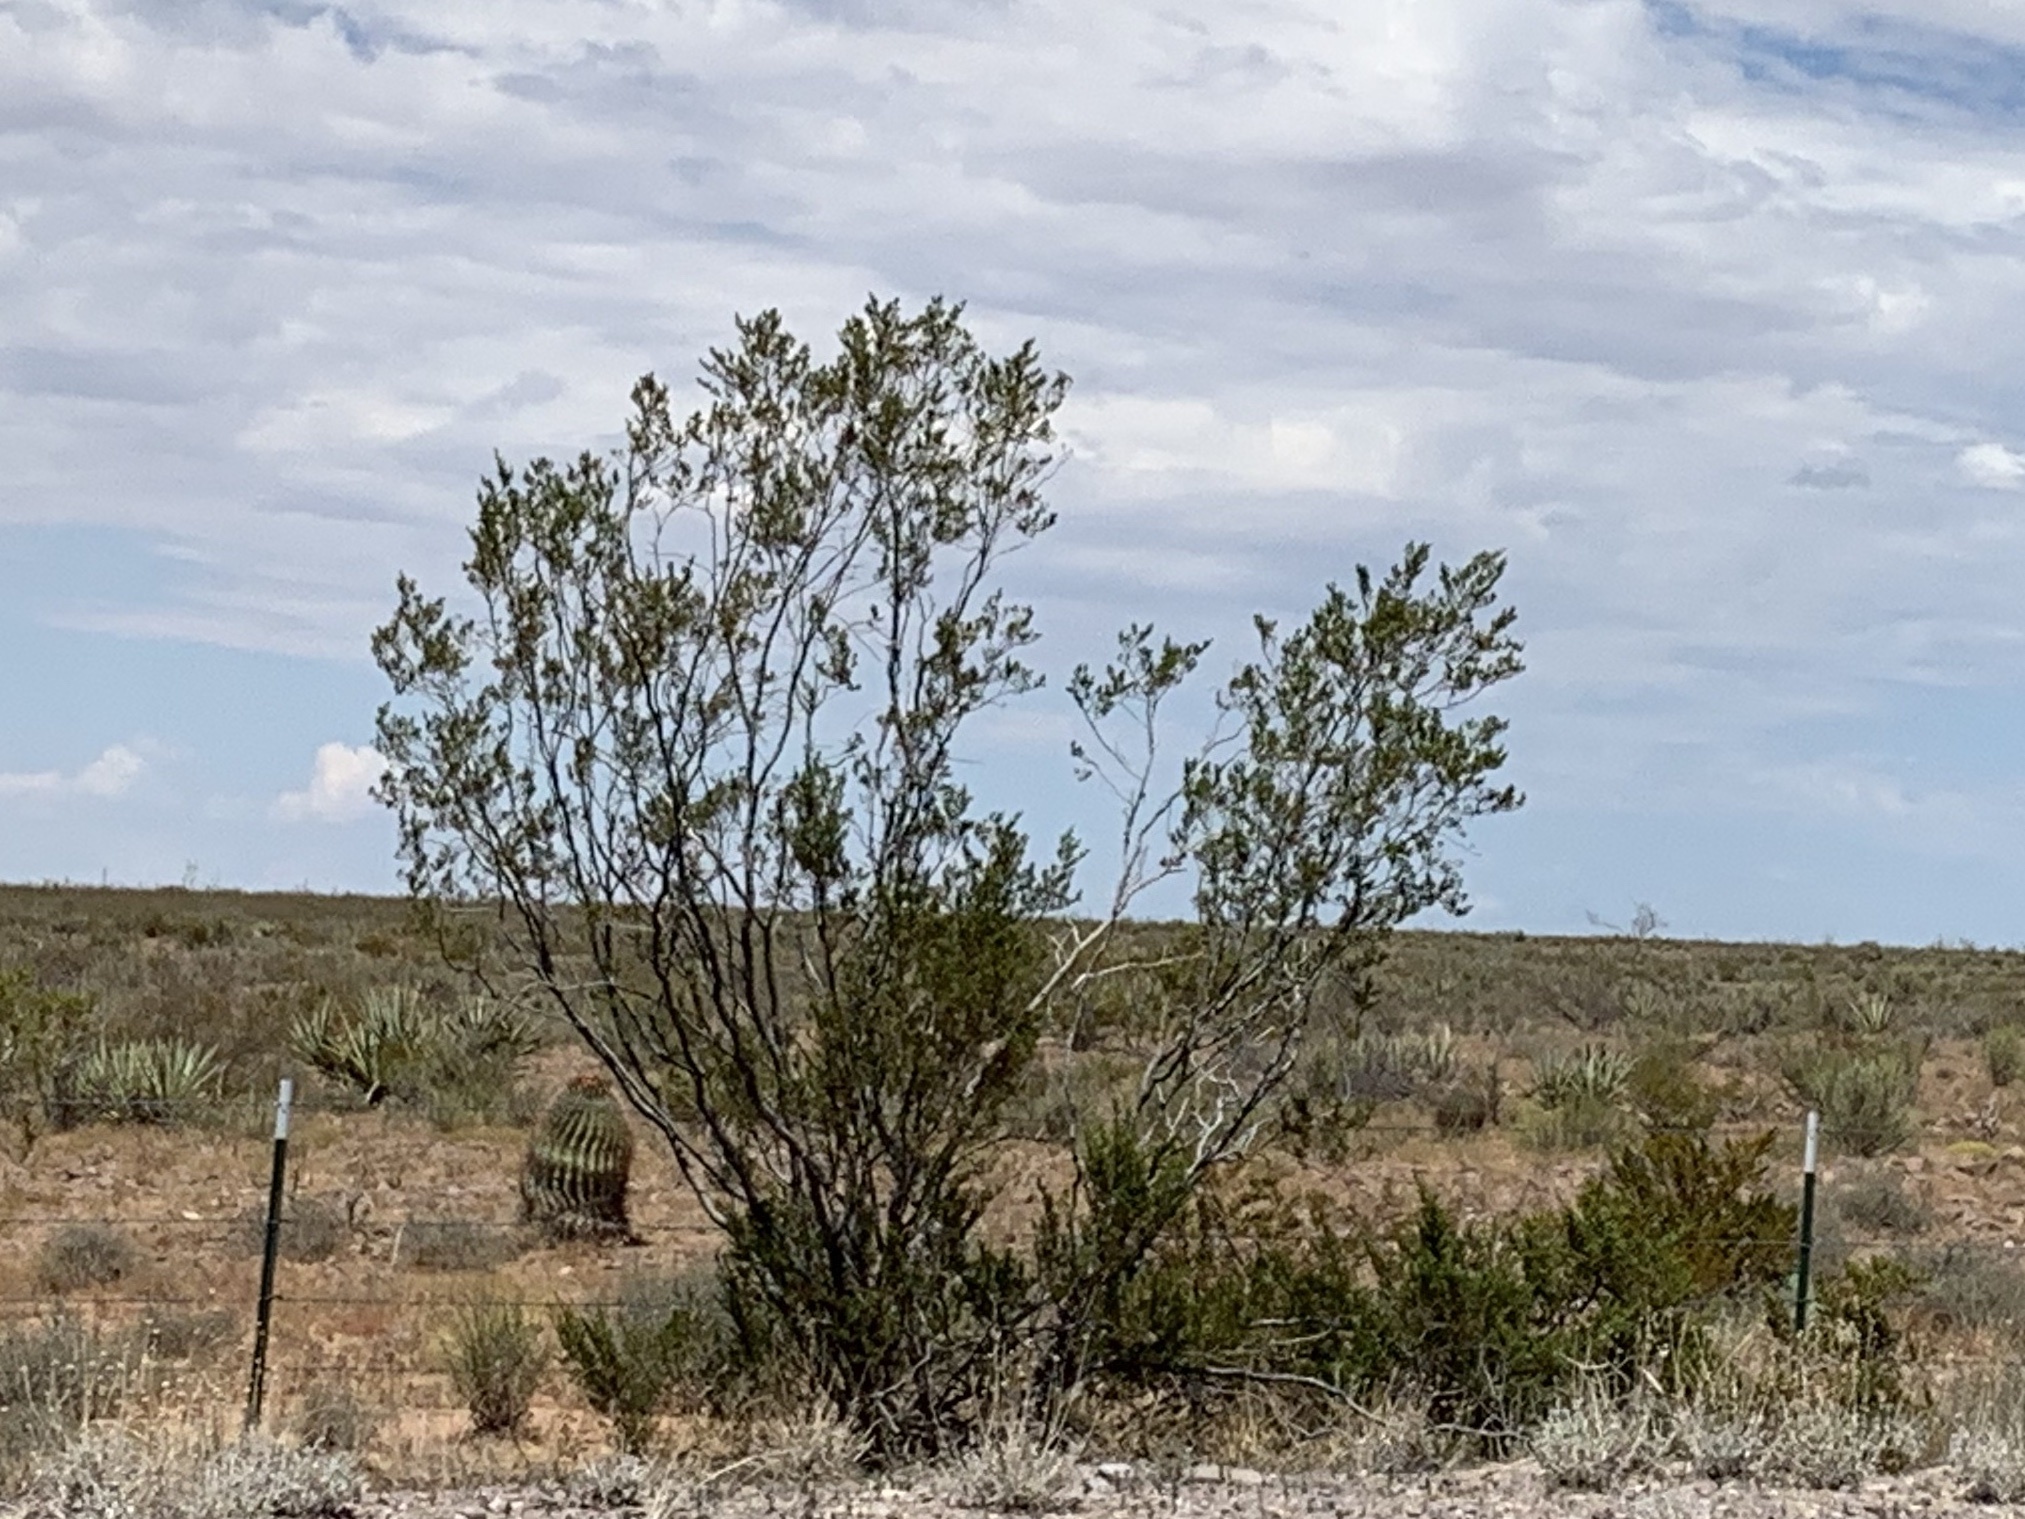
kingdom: Plantae
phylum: Tracheophyta
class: Magnoliopsida
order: Zygophyllales
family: Zygophyllaceae
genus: Larrea
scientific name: Larrea tridentata
